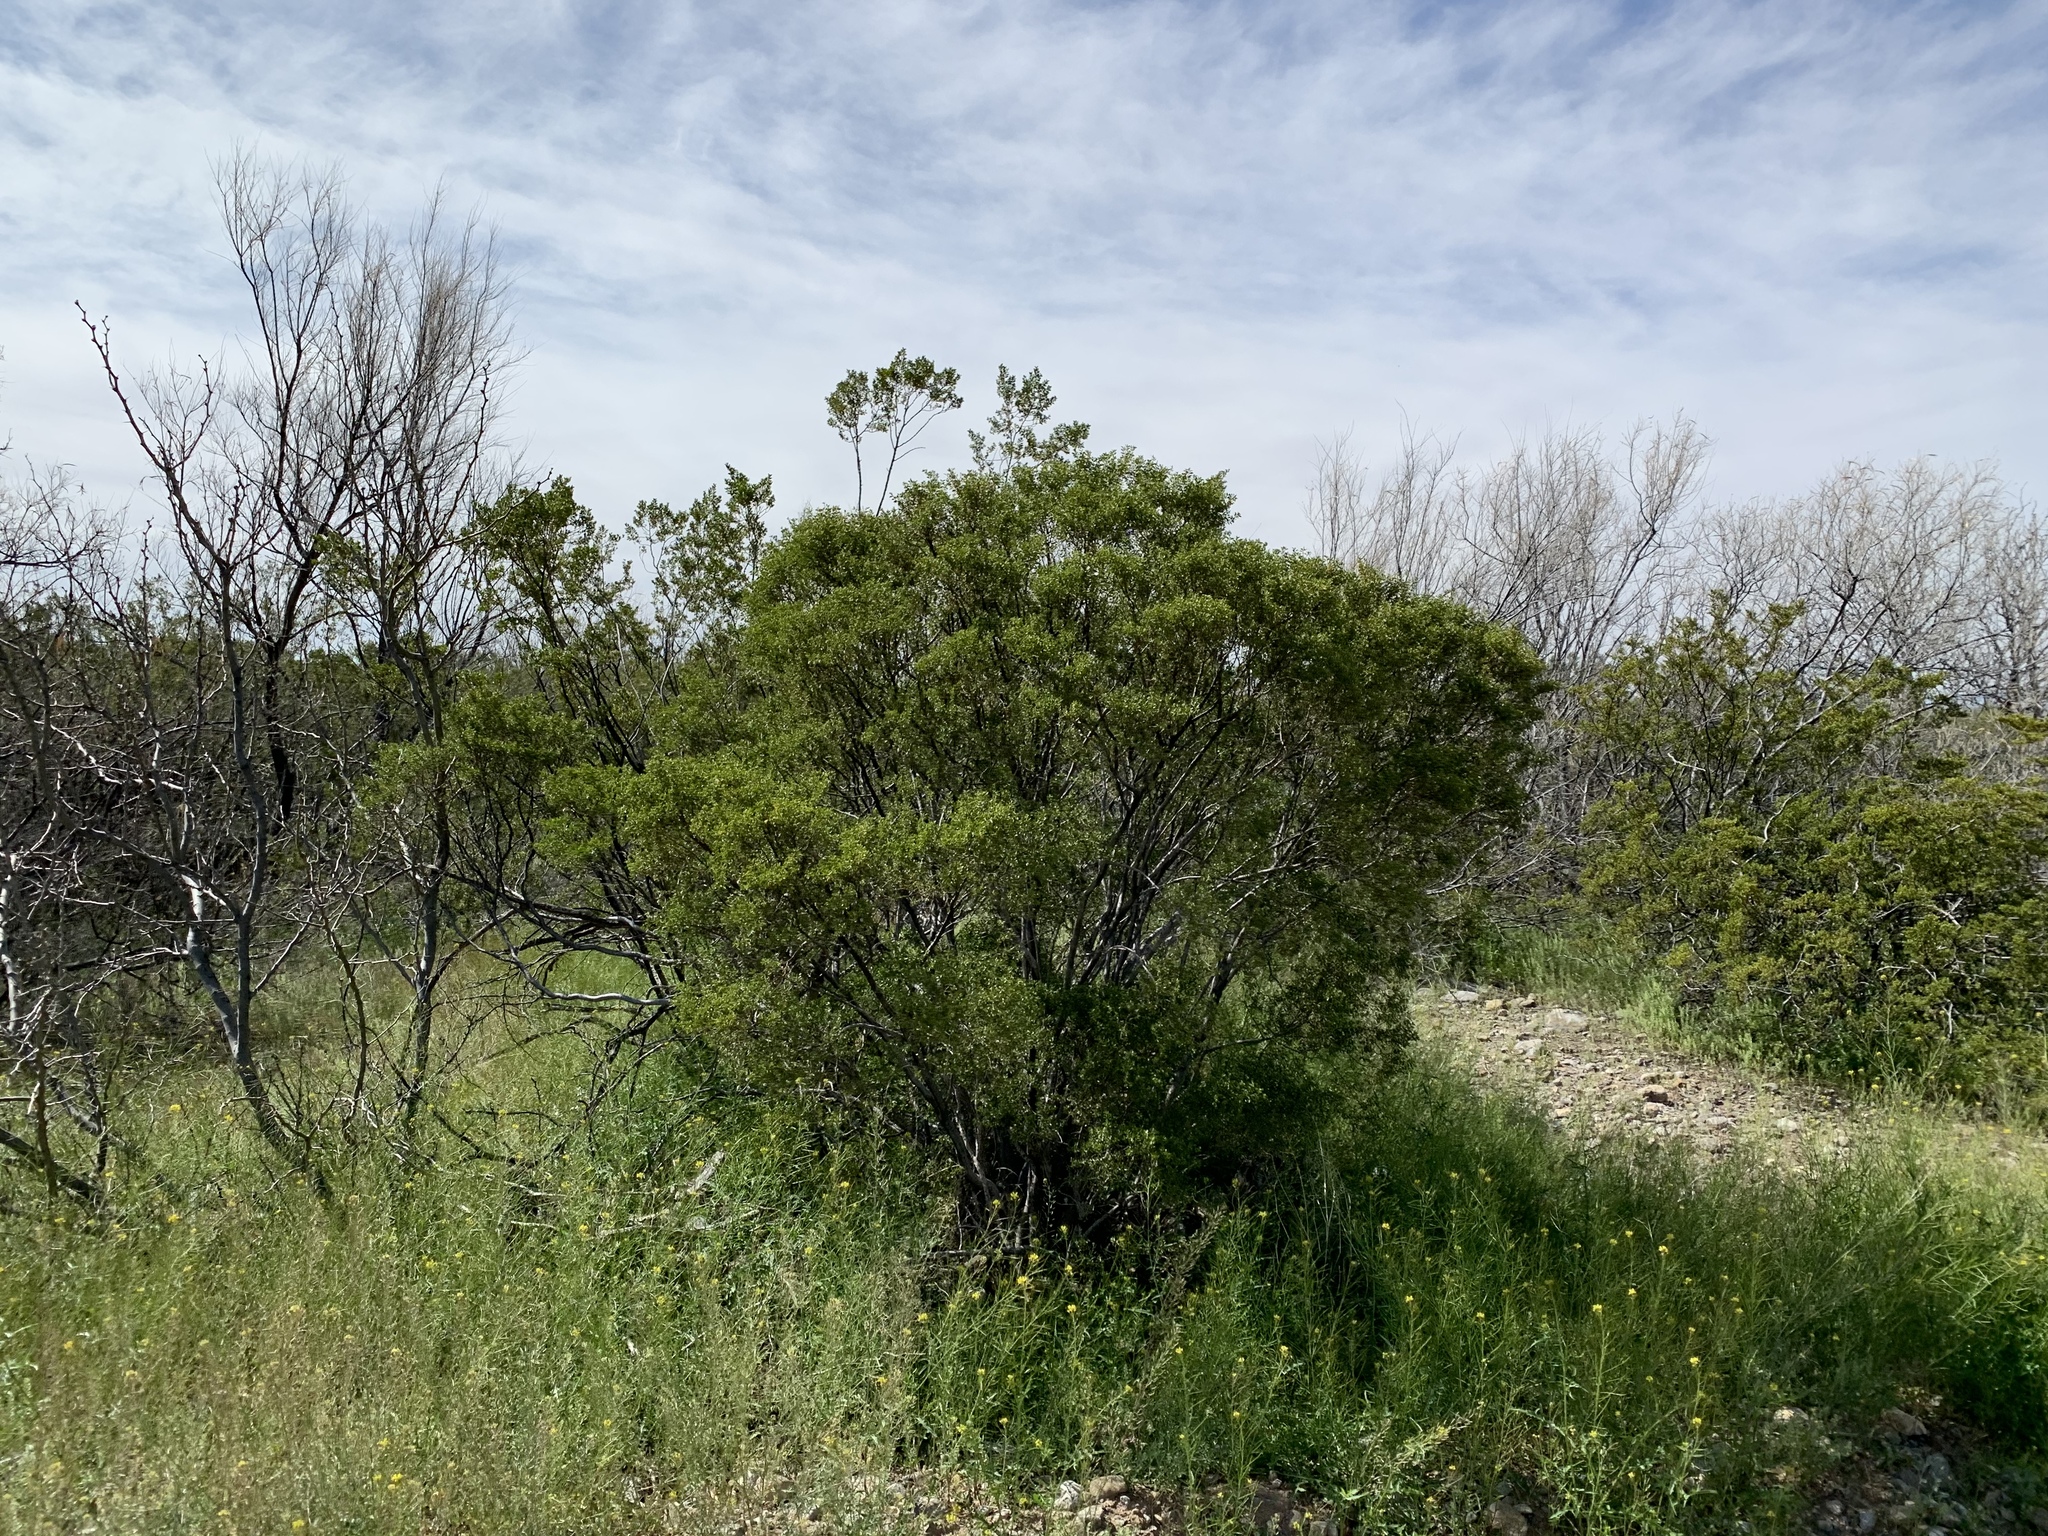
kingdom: Plantae
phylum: Tracheophyta
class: Magnoliopsida
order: Zygophyllales
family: Zygophyllaceae
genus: Larrea
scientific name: Larrea tridentata
